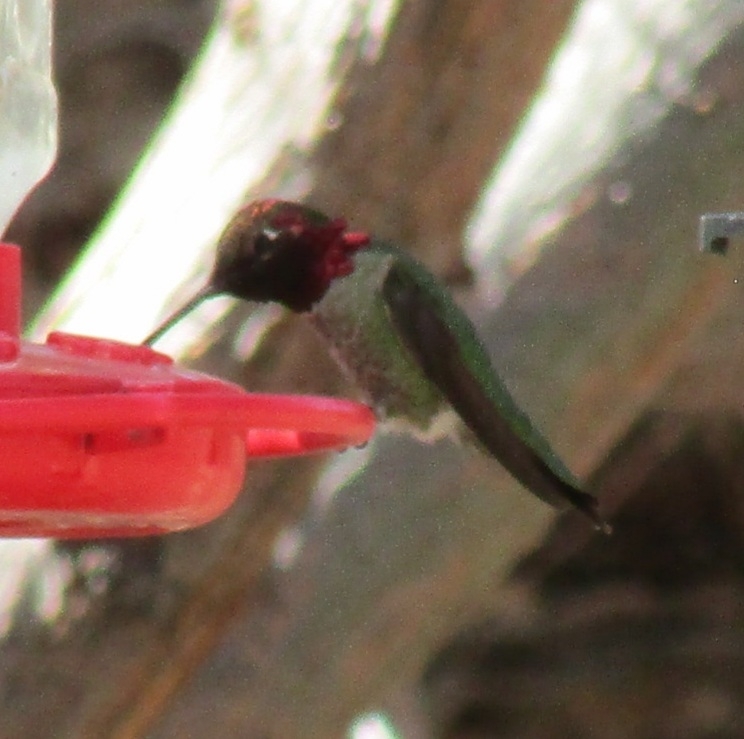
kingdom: Animalia
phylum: Chordata
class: Aves
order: Apodiformes
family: Trochilidae
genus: Calypte
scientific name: Calypte anna
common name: Anna's hummingbird
